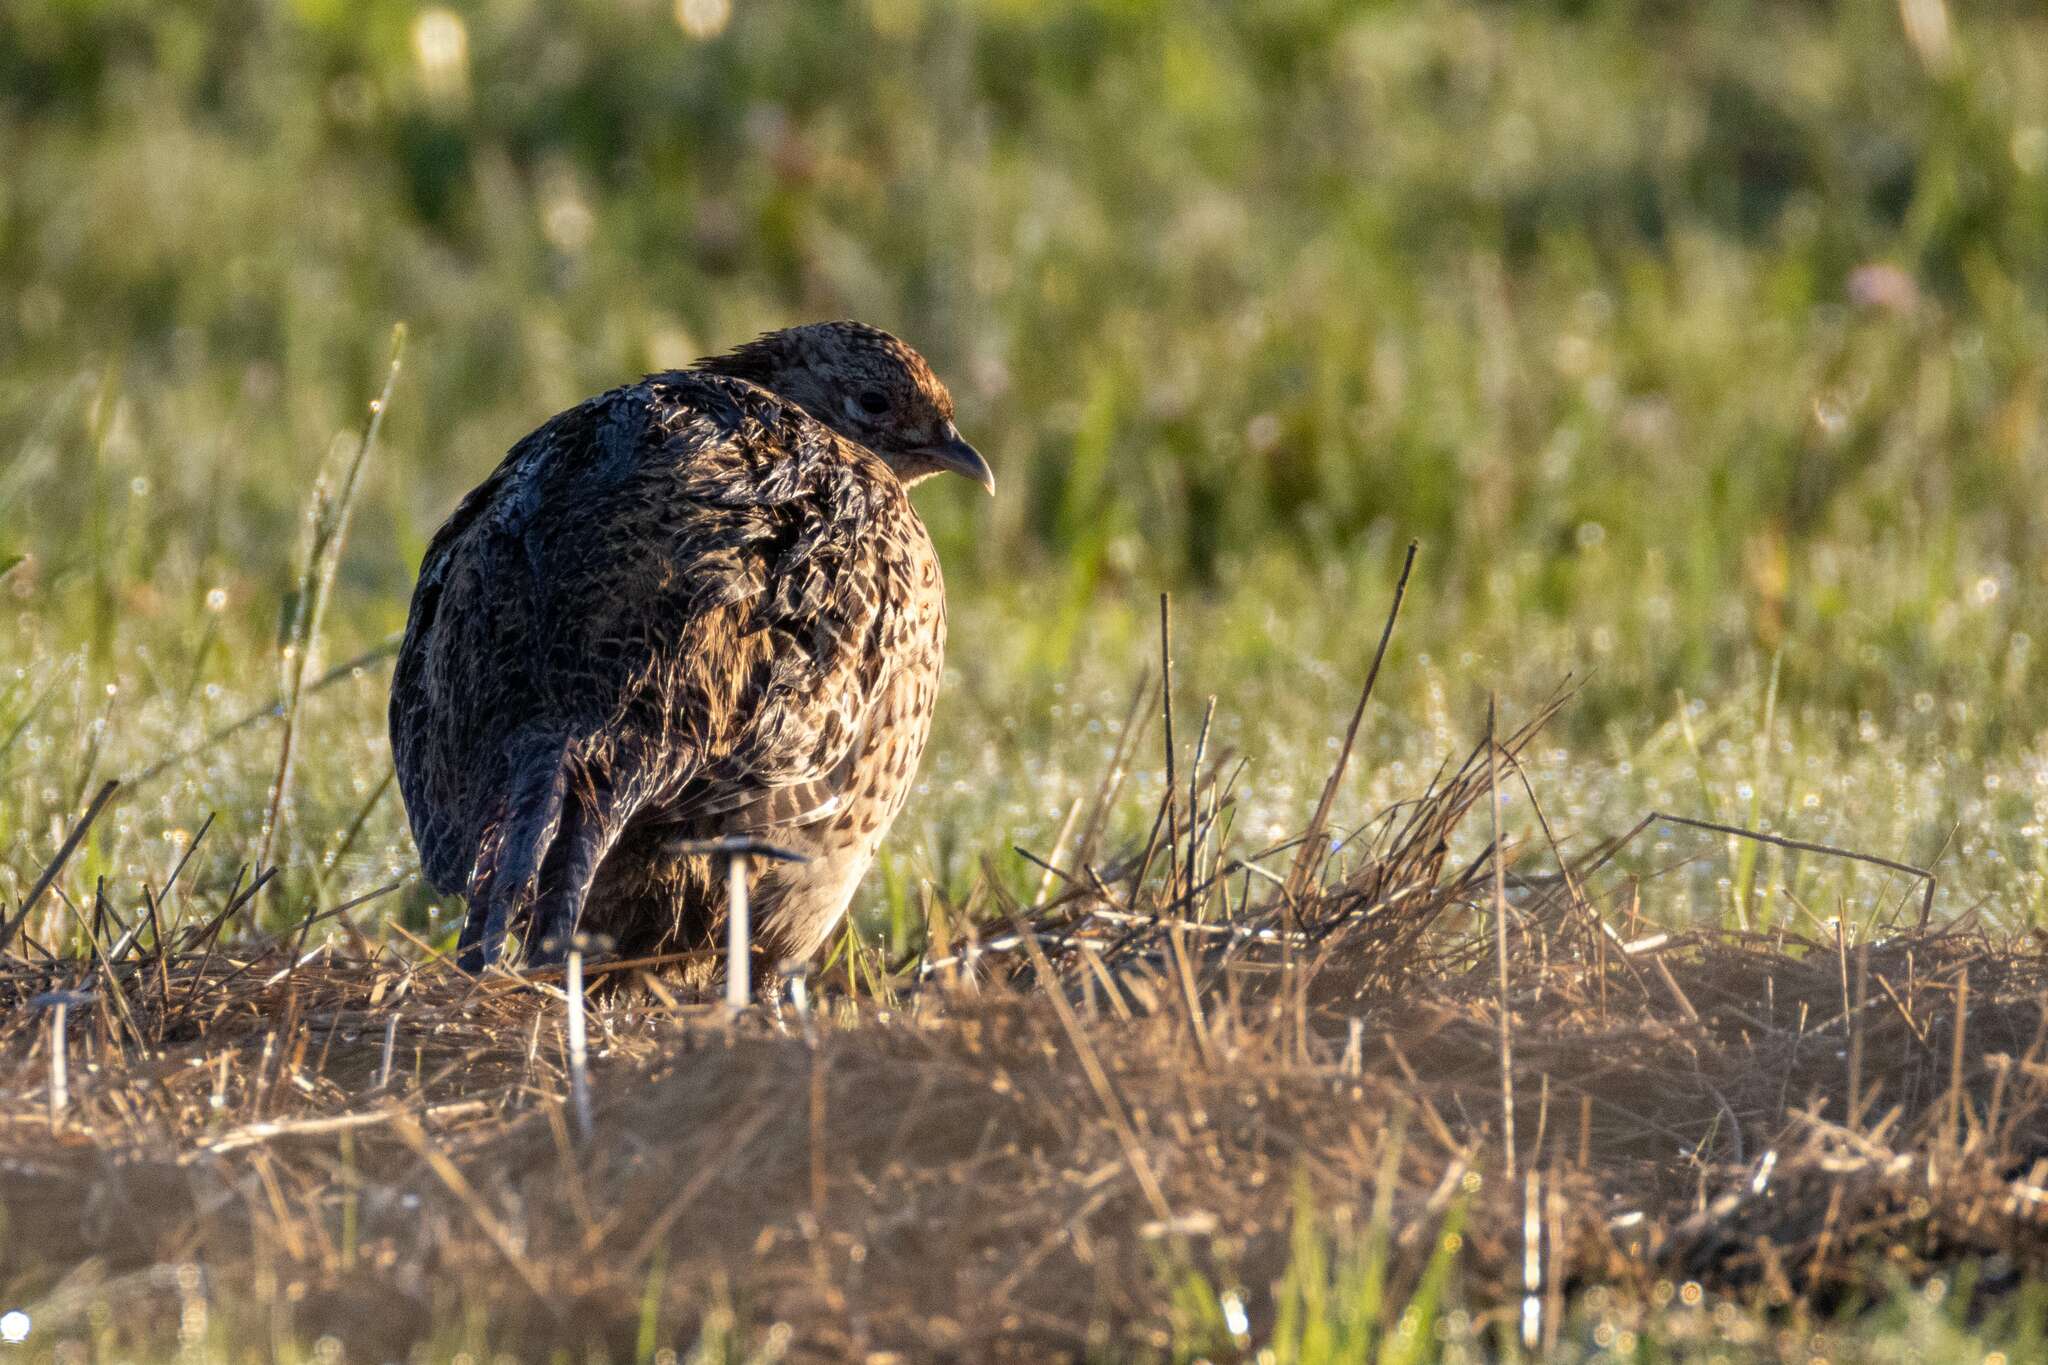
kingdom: Animalia
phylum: Chordata
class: Aves
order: Galliformes
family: Phasianidae
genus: Phasianus
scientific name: Phasianus colchicus
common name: Common pheasant
